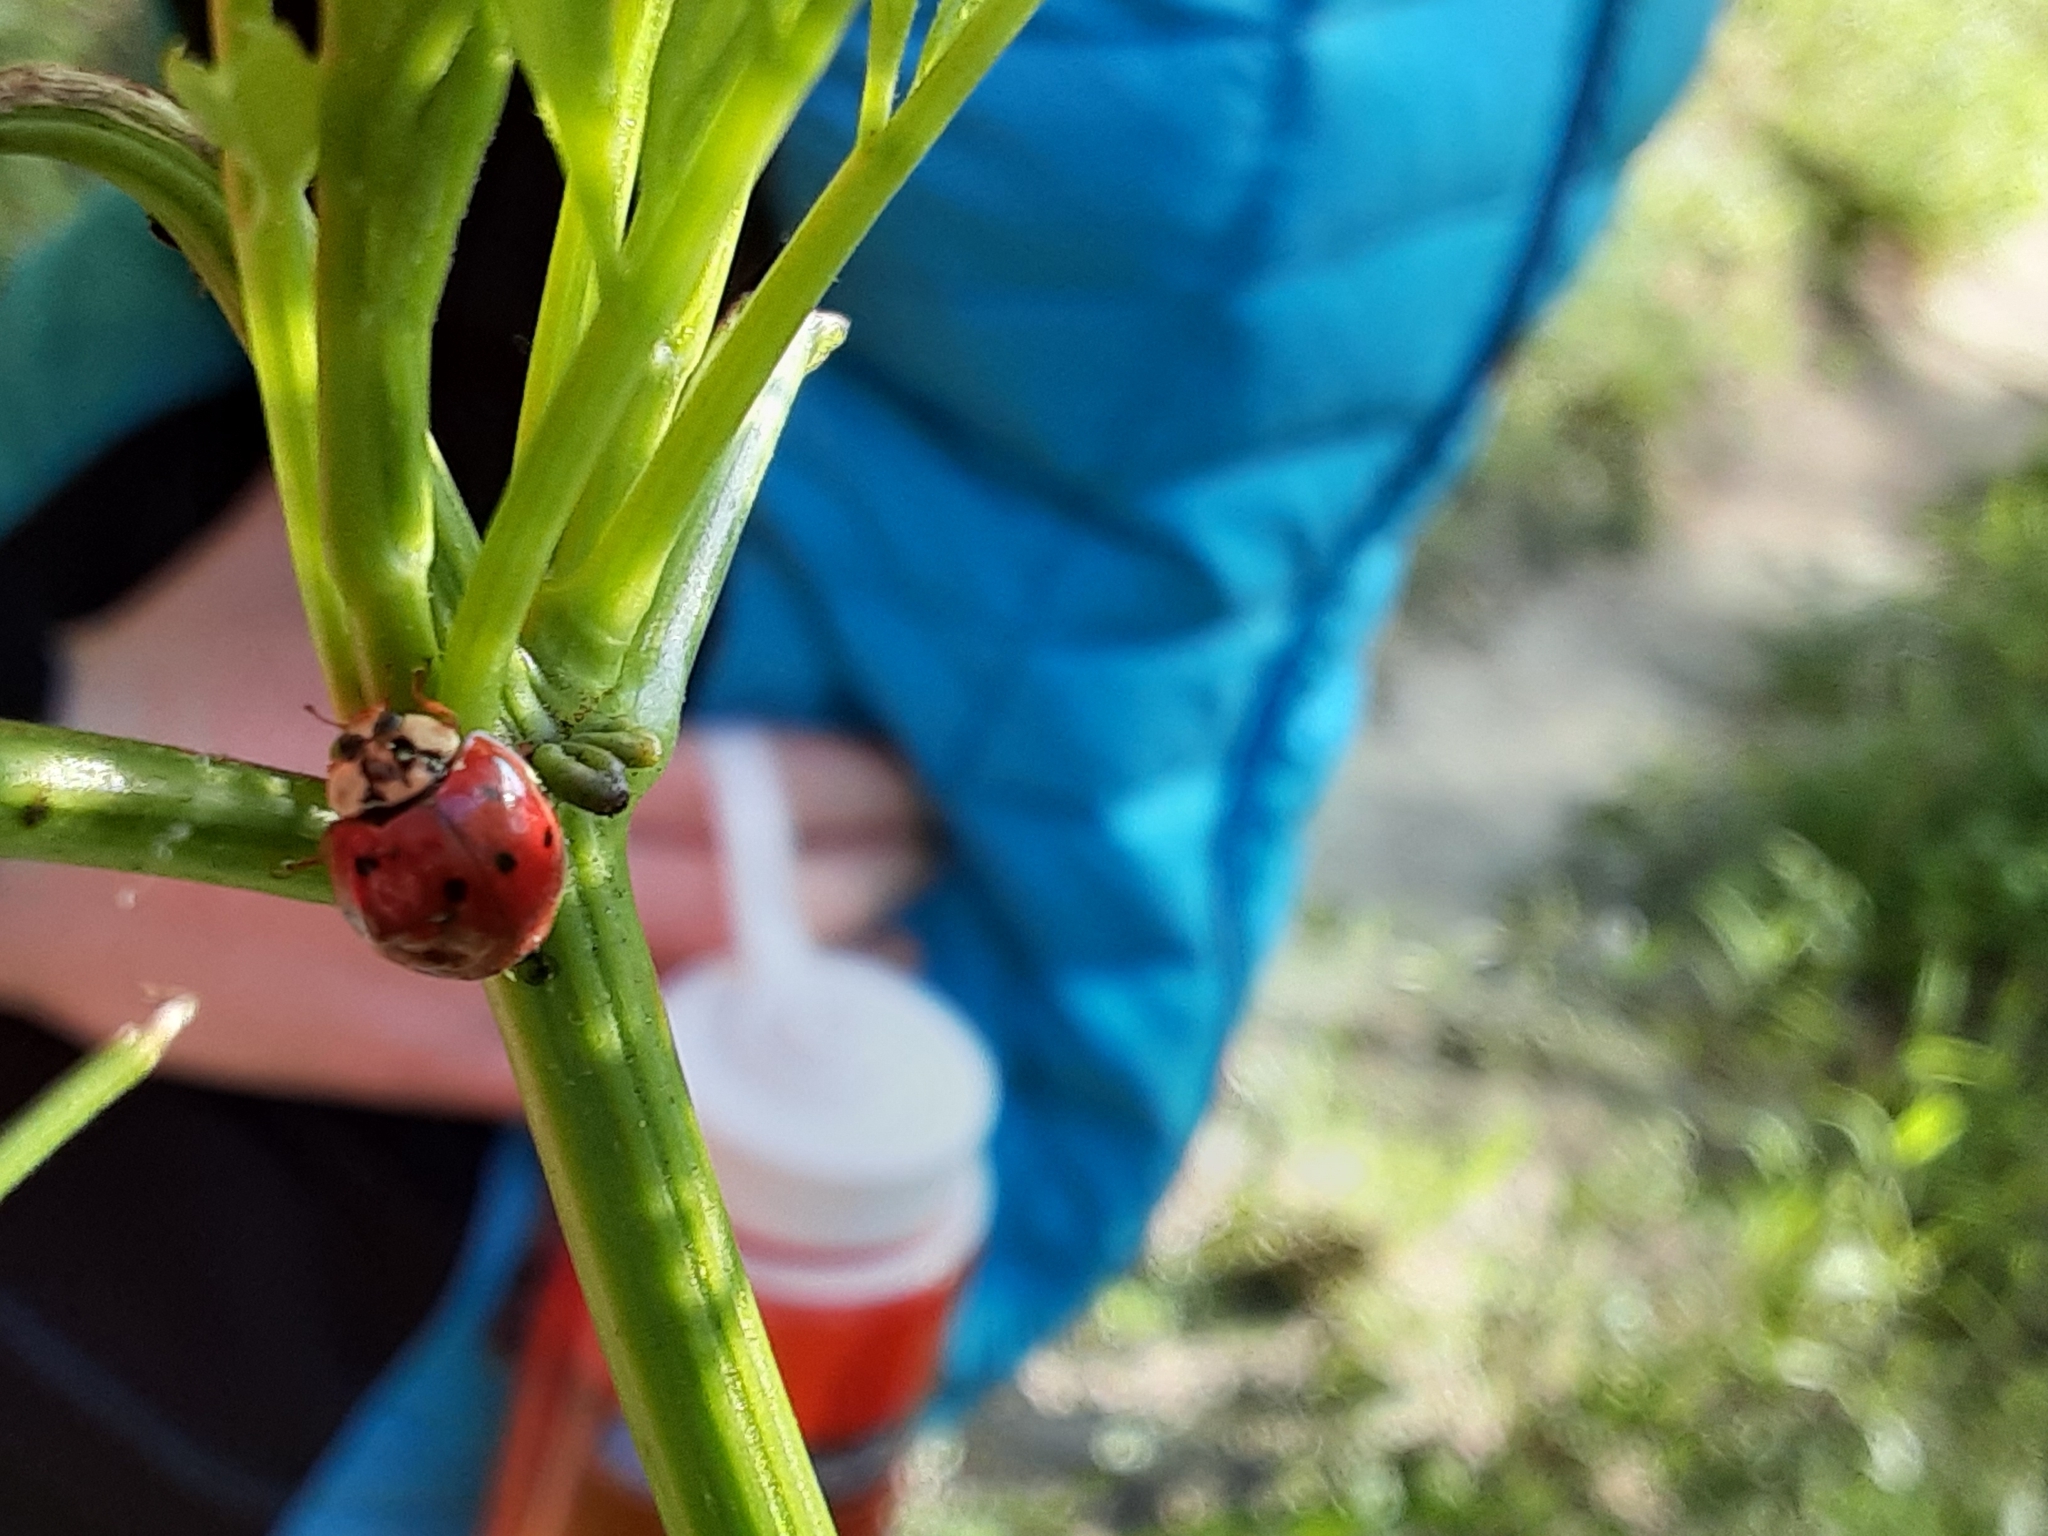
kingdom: Animalia
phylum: Arthropoda
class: Insecta
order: Coleoptera
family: Coccinellidae
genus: Harmonia
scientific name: Harmonia axyridis
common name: Harlequin ladybird
